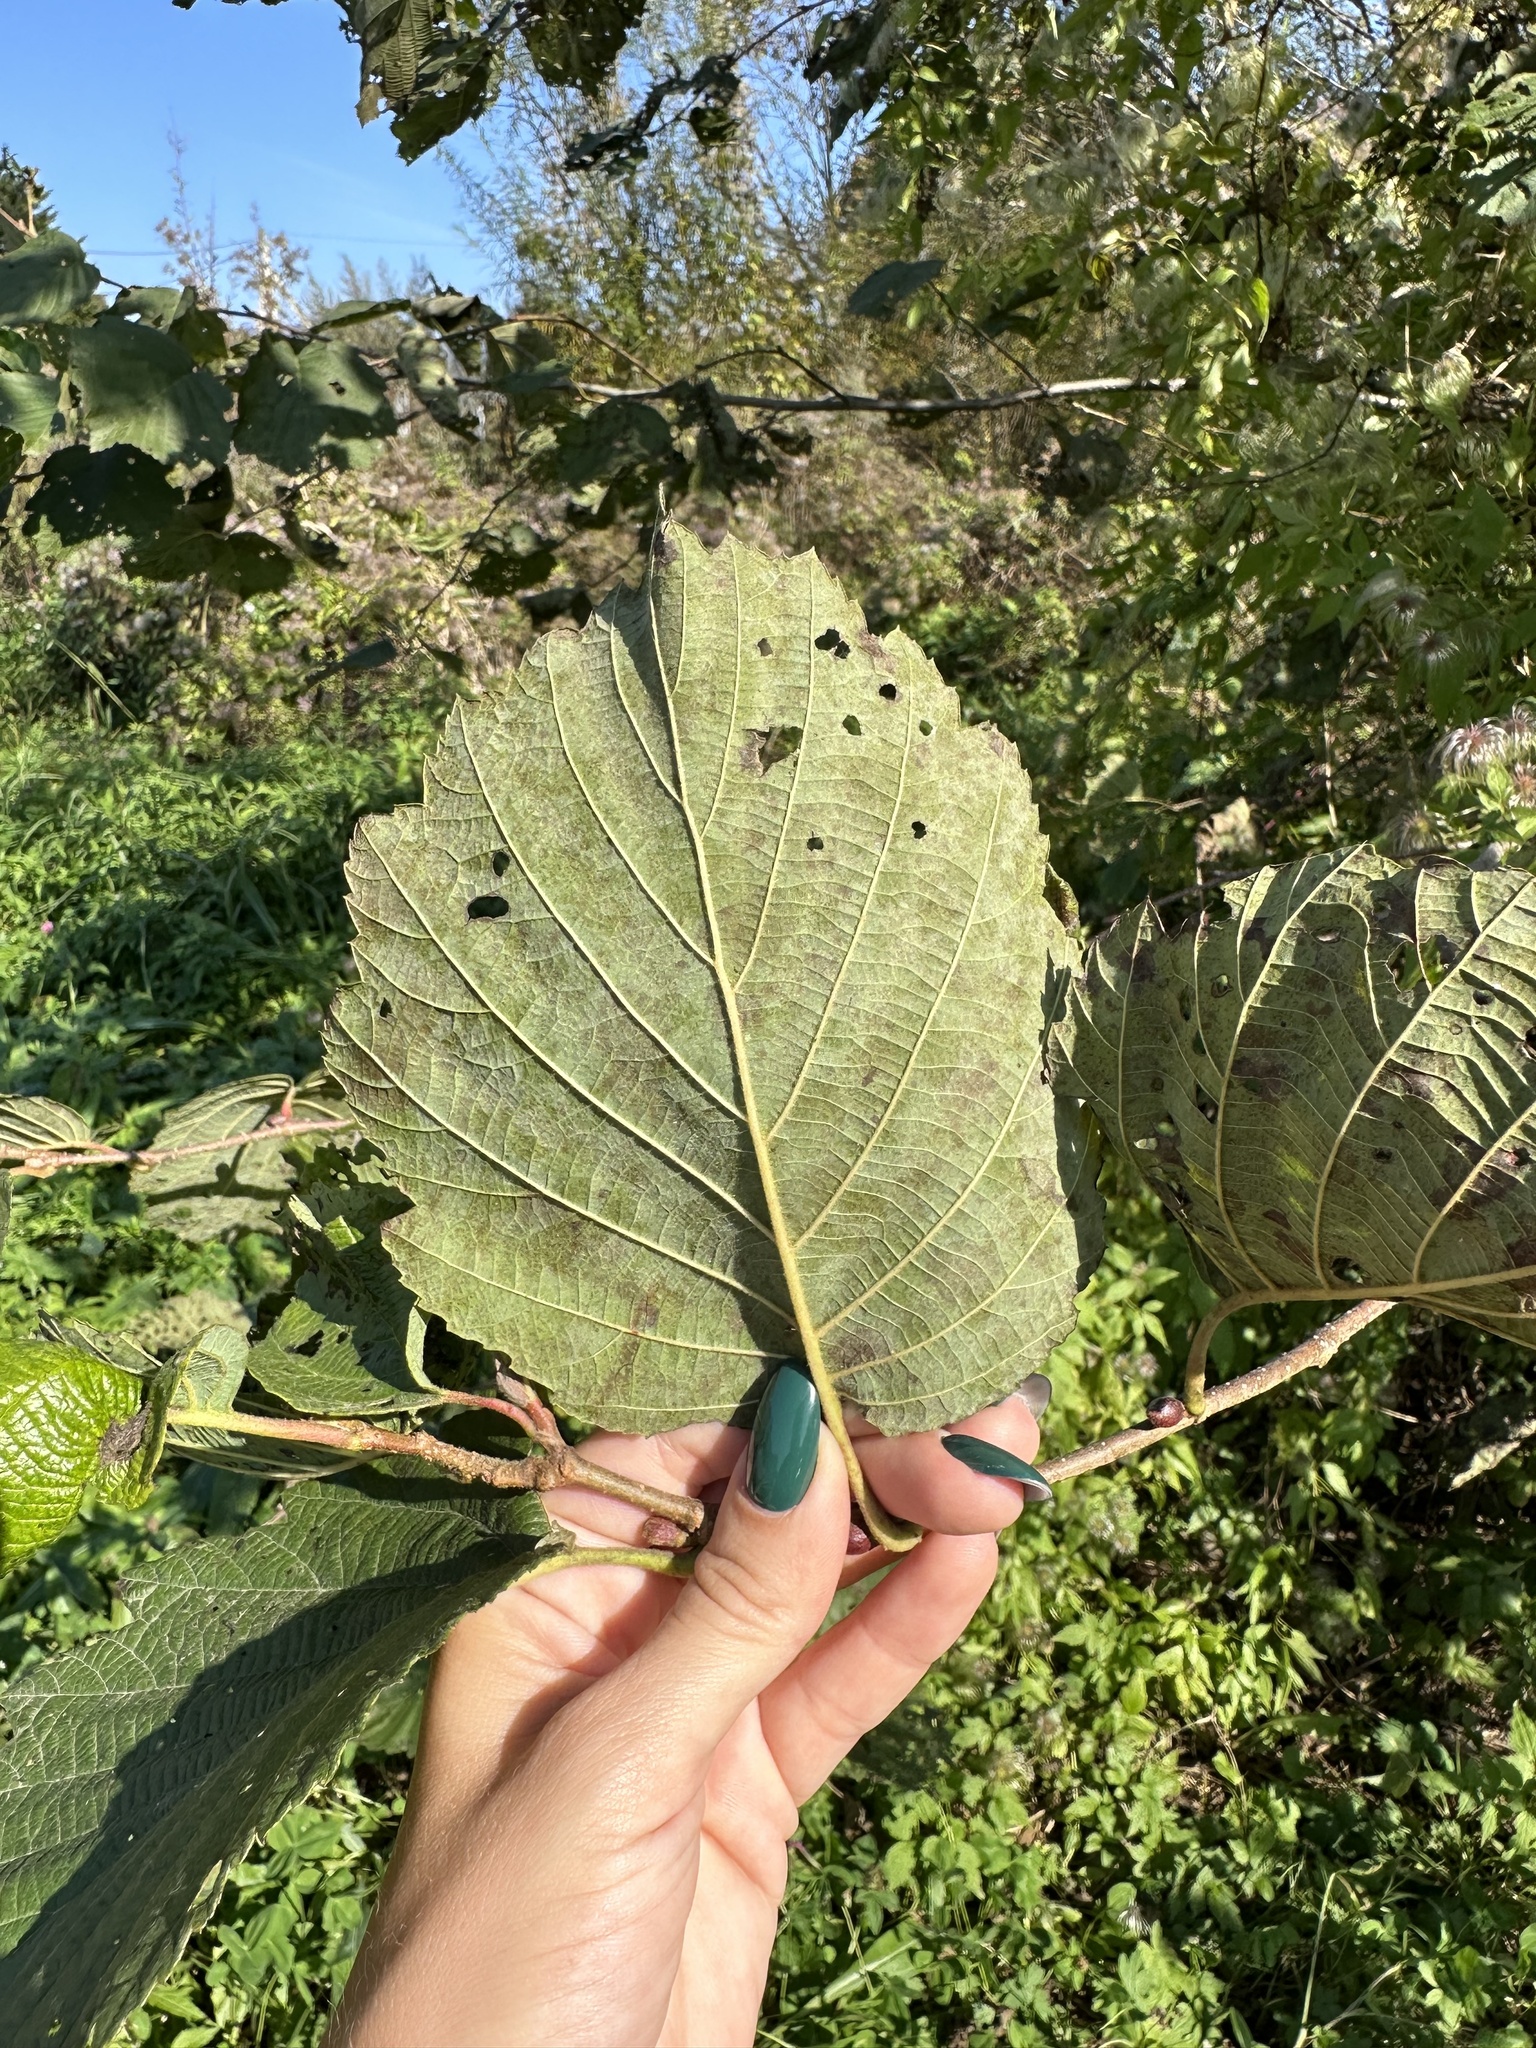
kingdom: Plantae
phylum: Tracheophyta
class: Magnoliopsida
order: Fagales
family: Betulaceae
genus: Alnus
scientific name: Alnus hirsuta
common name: Manchurian alder
